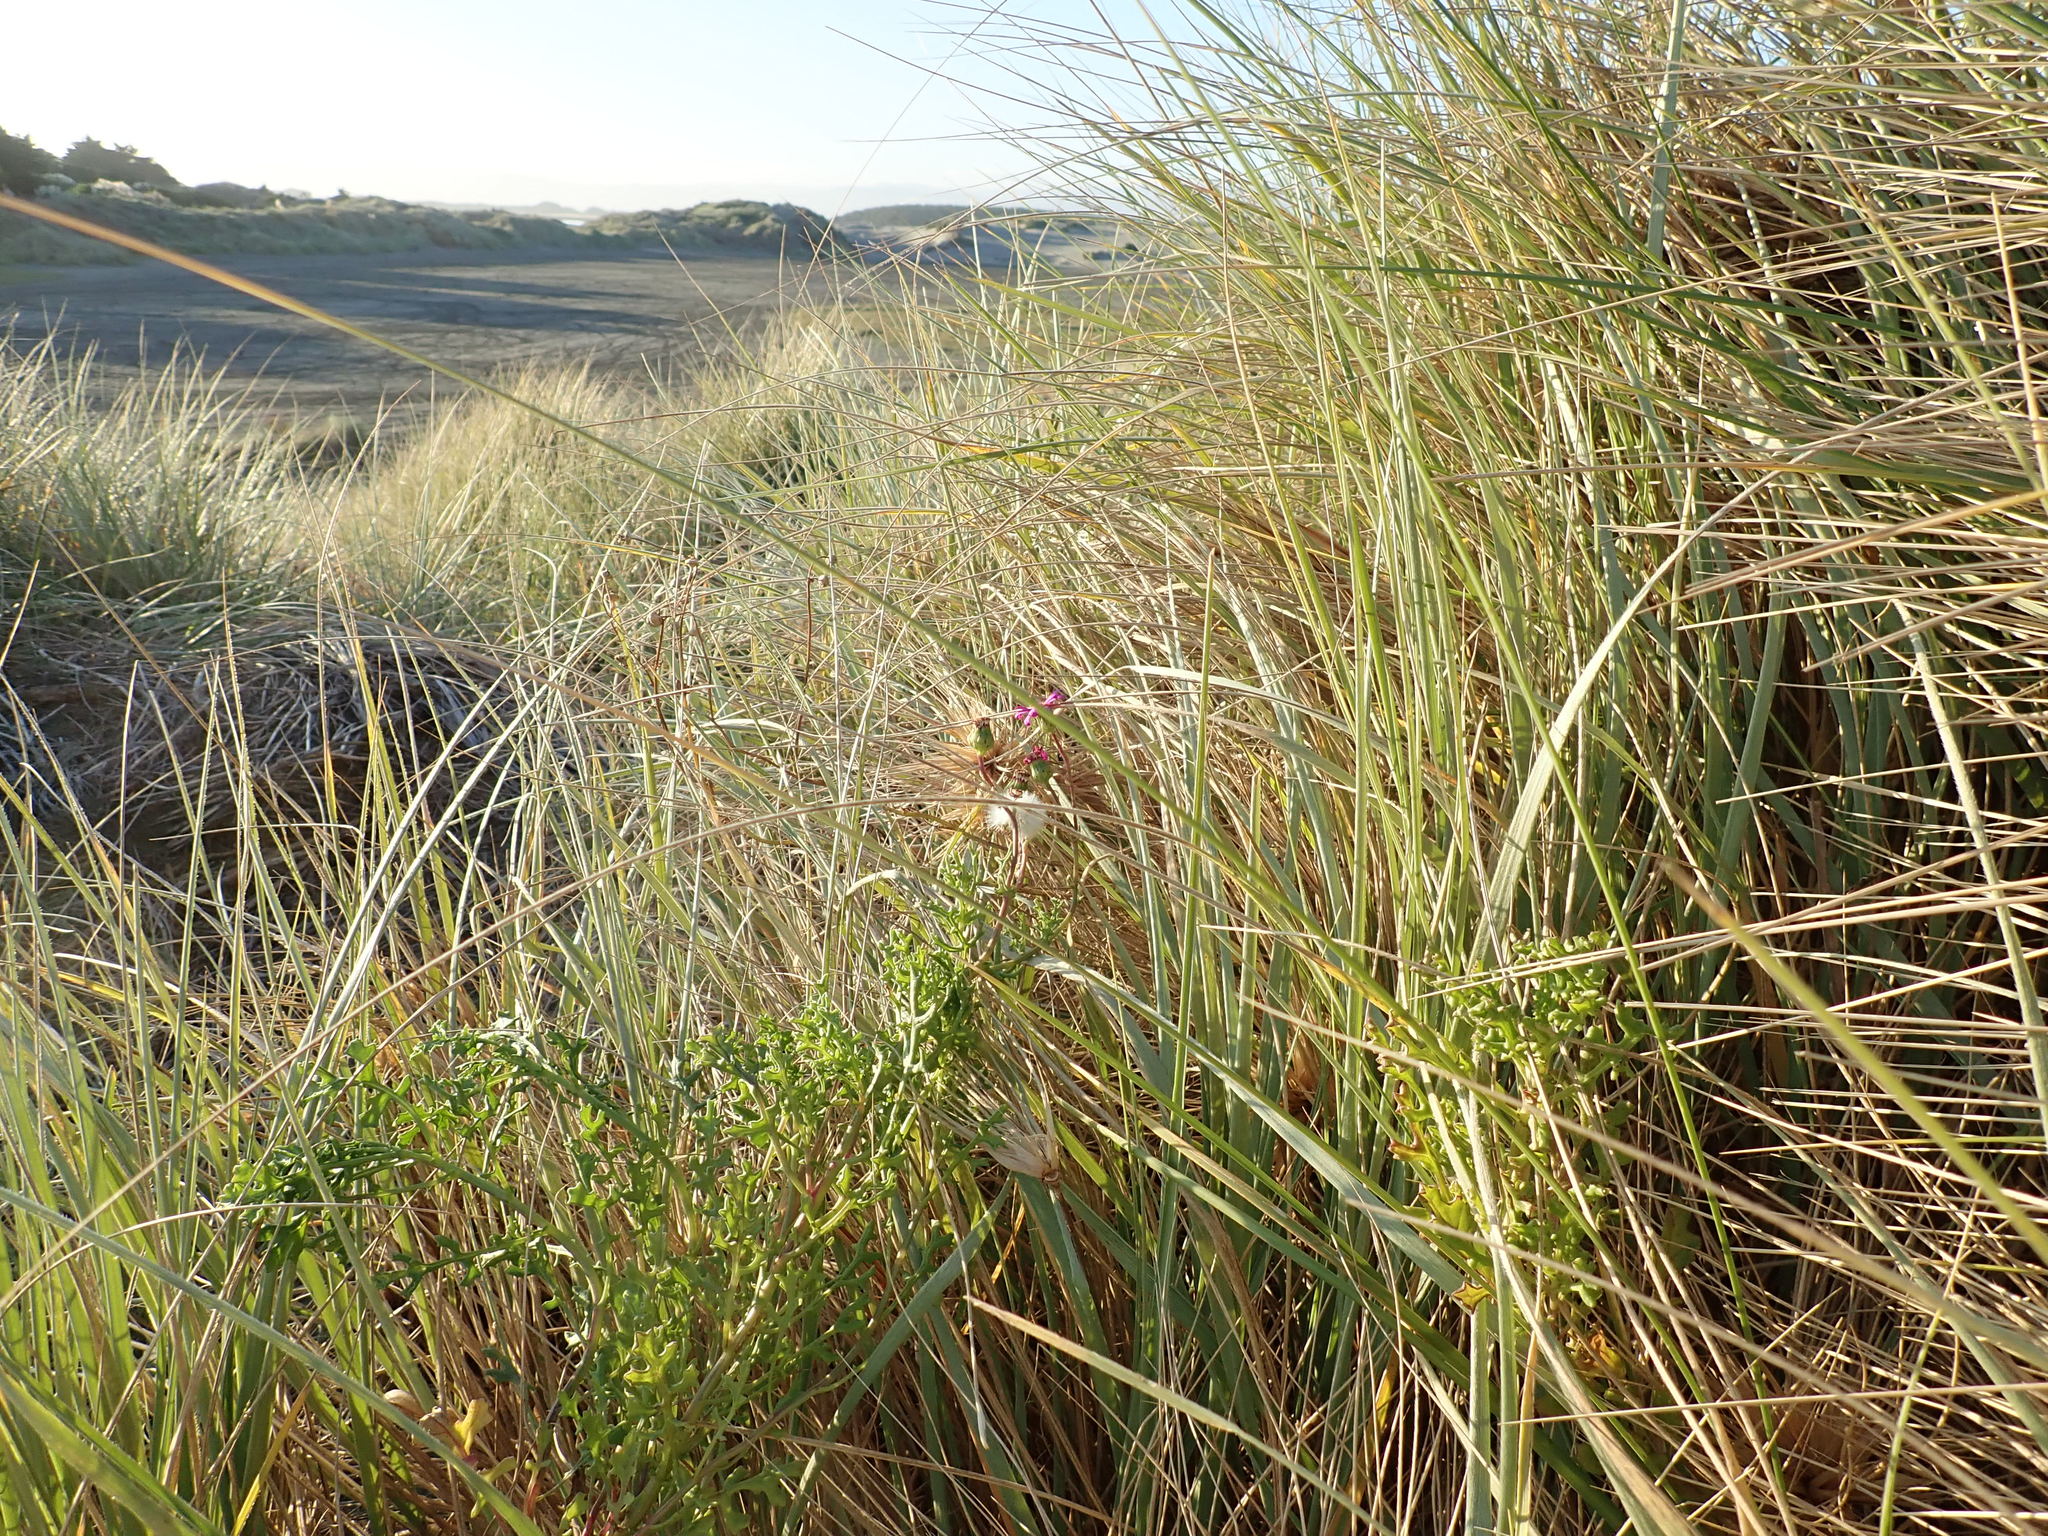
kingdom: Plantae
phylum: Tracheophyta
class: Magnoliopsida
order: Asterales
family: Asteraceae
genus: Senecio
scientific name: Senecio elegans
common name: Purple groundsel
